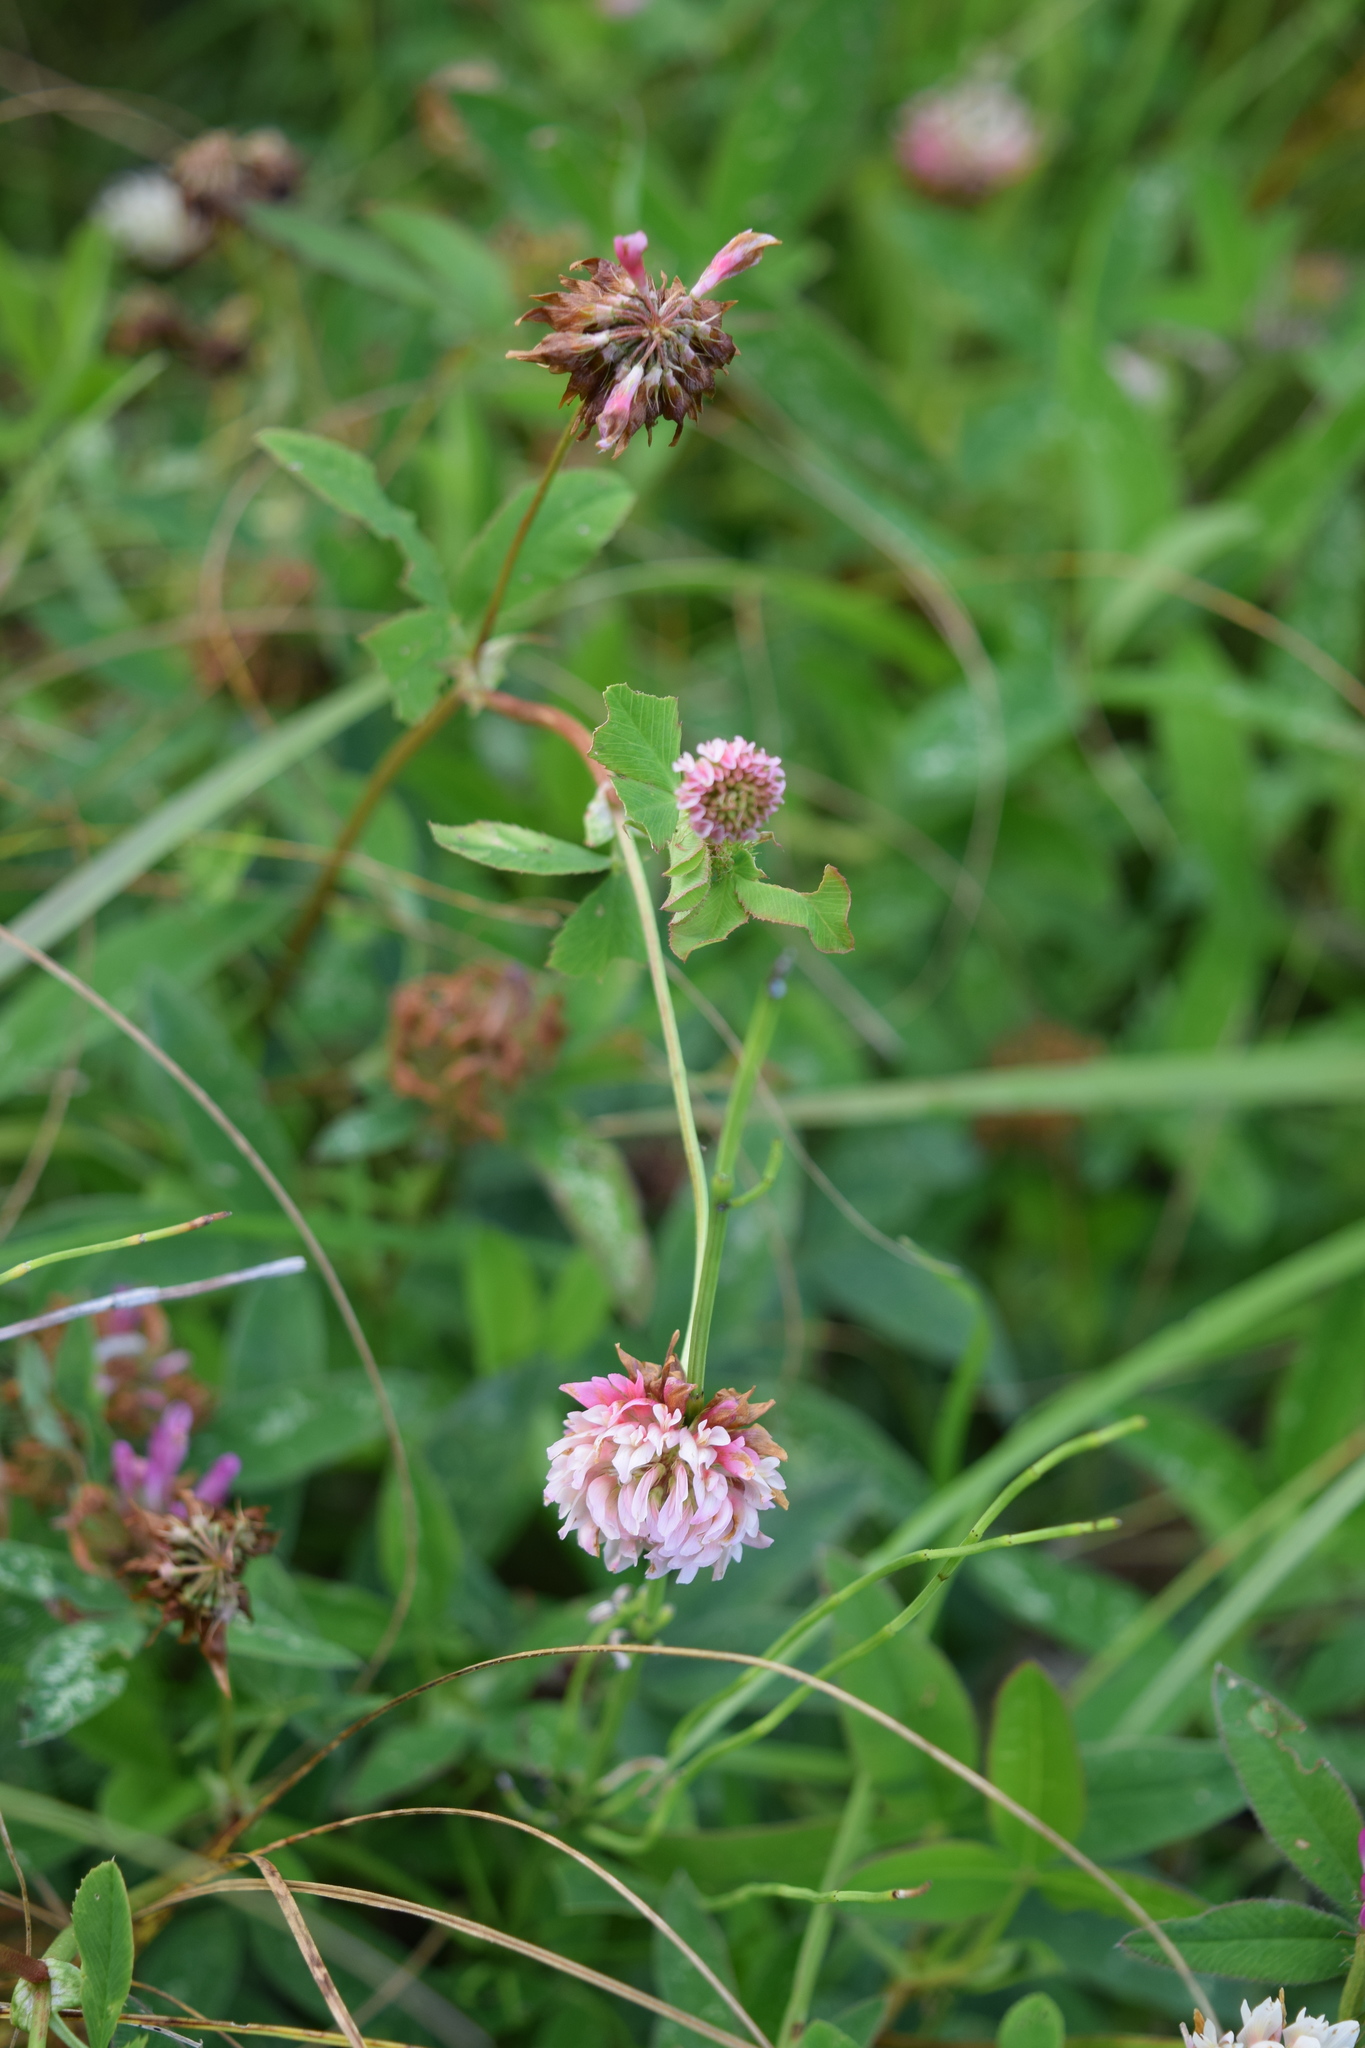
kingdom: Plantae
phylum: Tracheophyta
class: Magnoliopsida
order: Fabales
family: Fabaceae
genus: Trifolium
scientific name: Trifolium hybridum
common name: Alsike clover
